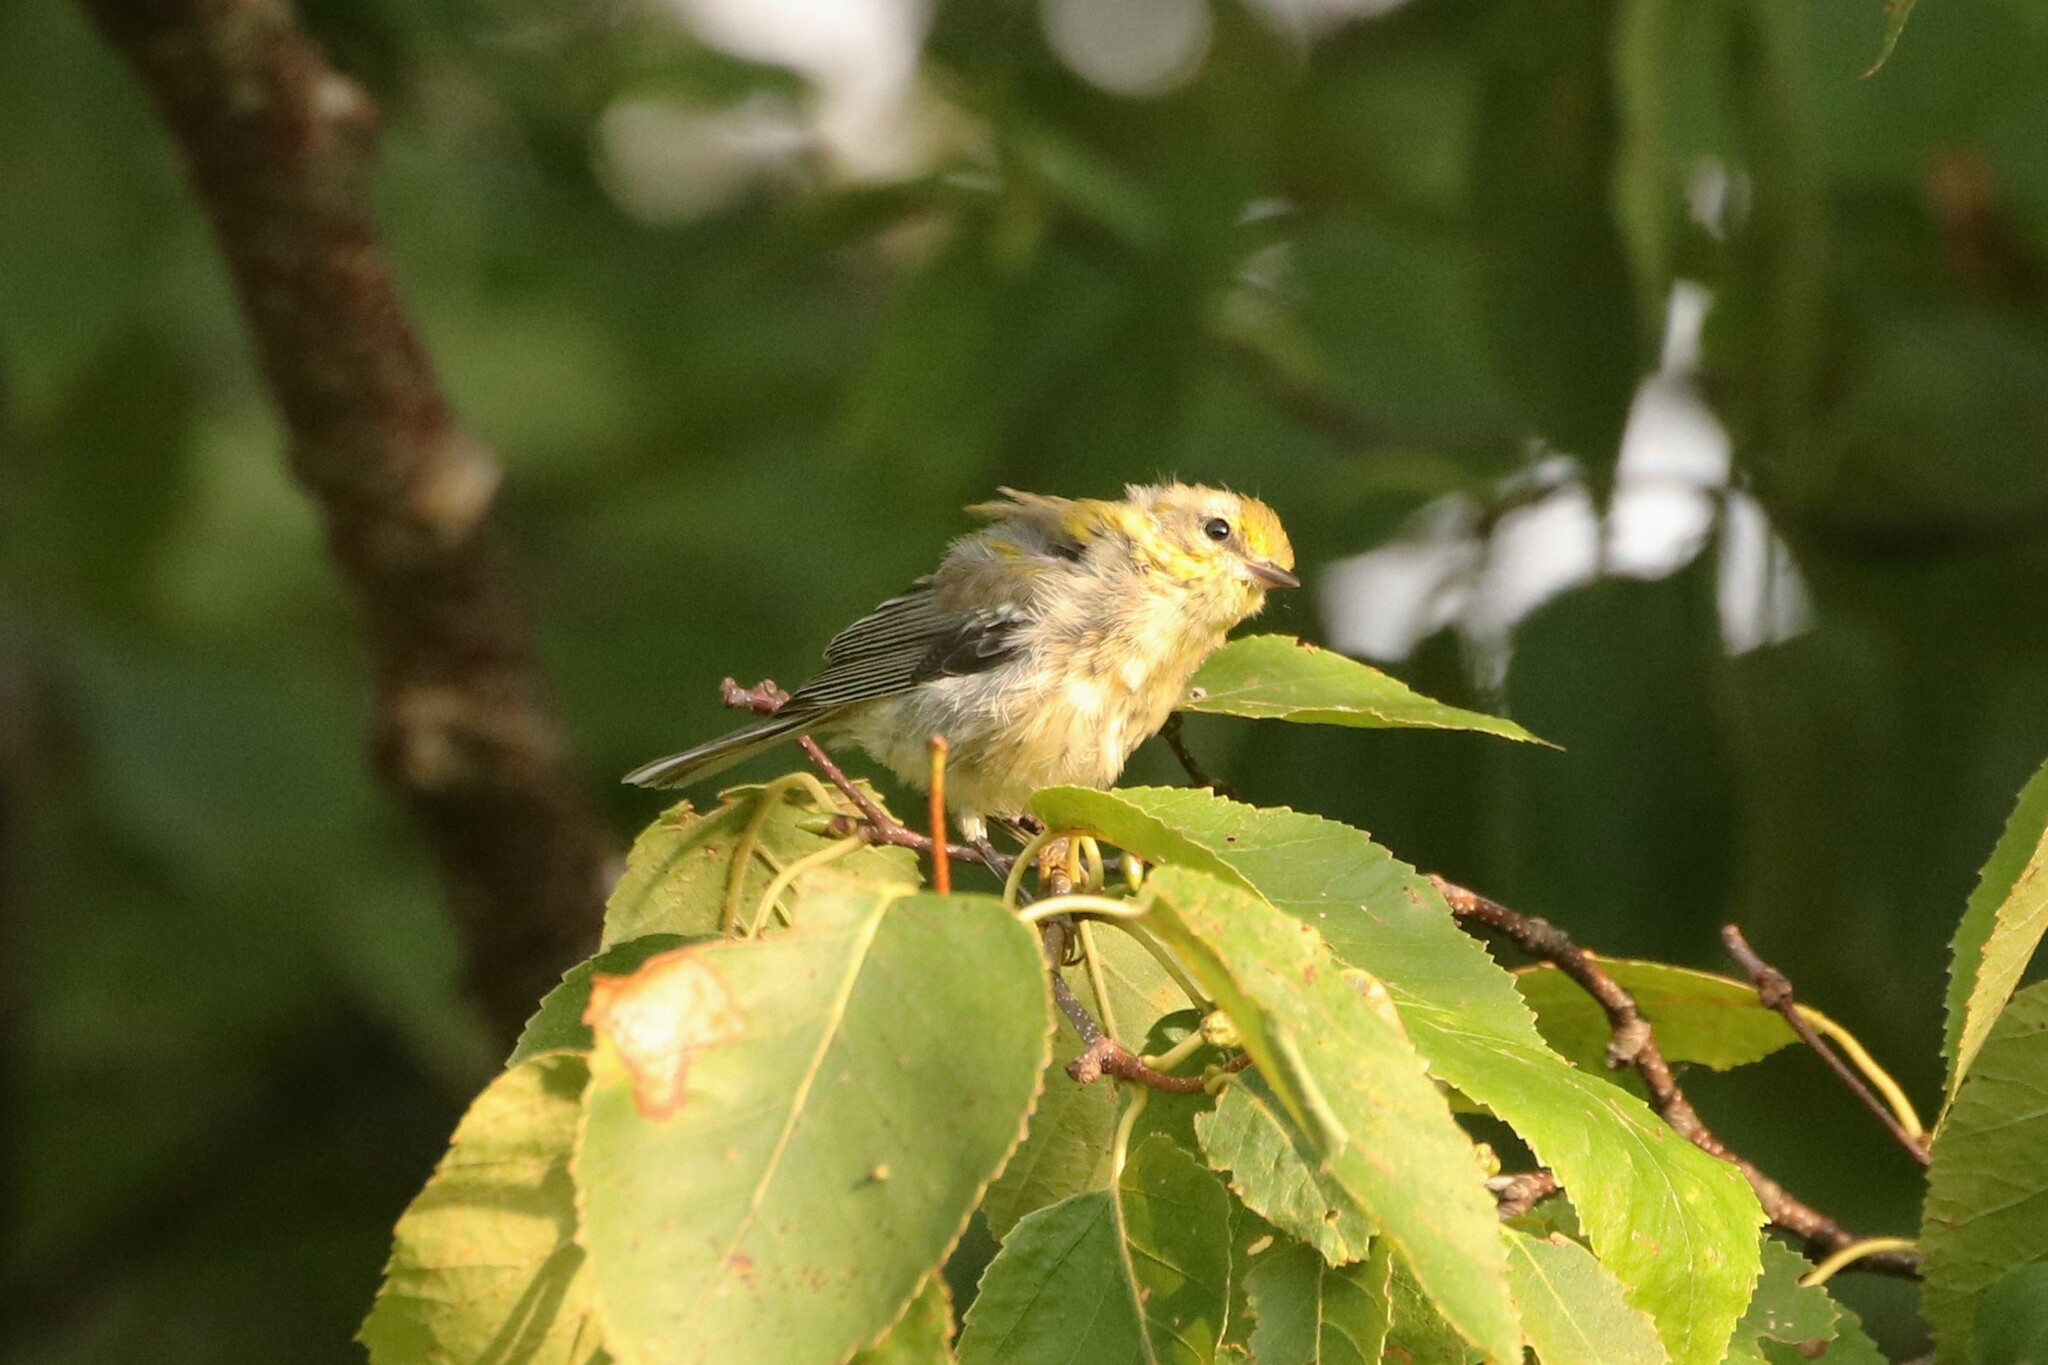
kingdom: Animalia
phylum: Chordata
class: Aves
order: Passeriformes
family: Parulidae
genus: Setophaga
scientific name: Setophaga virens
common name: Black-throated green warbler
